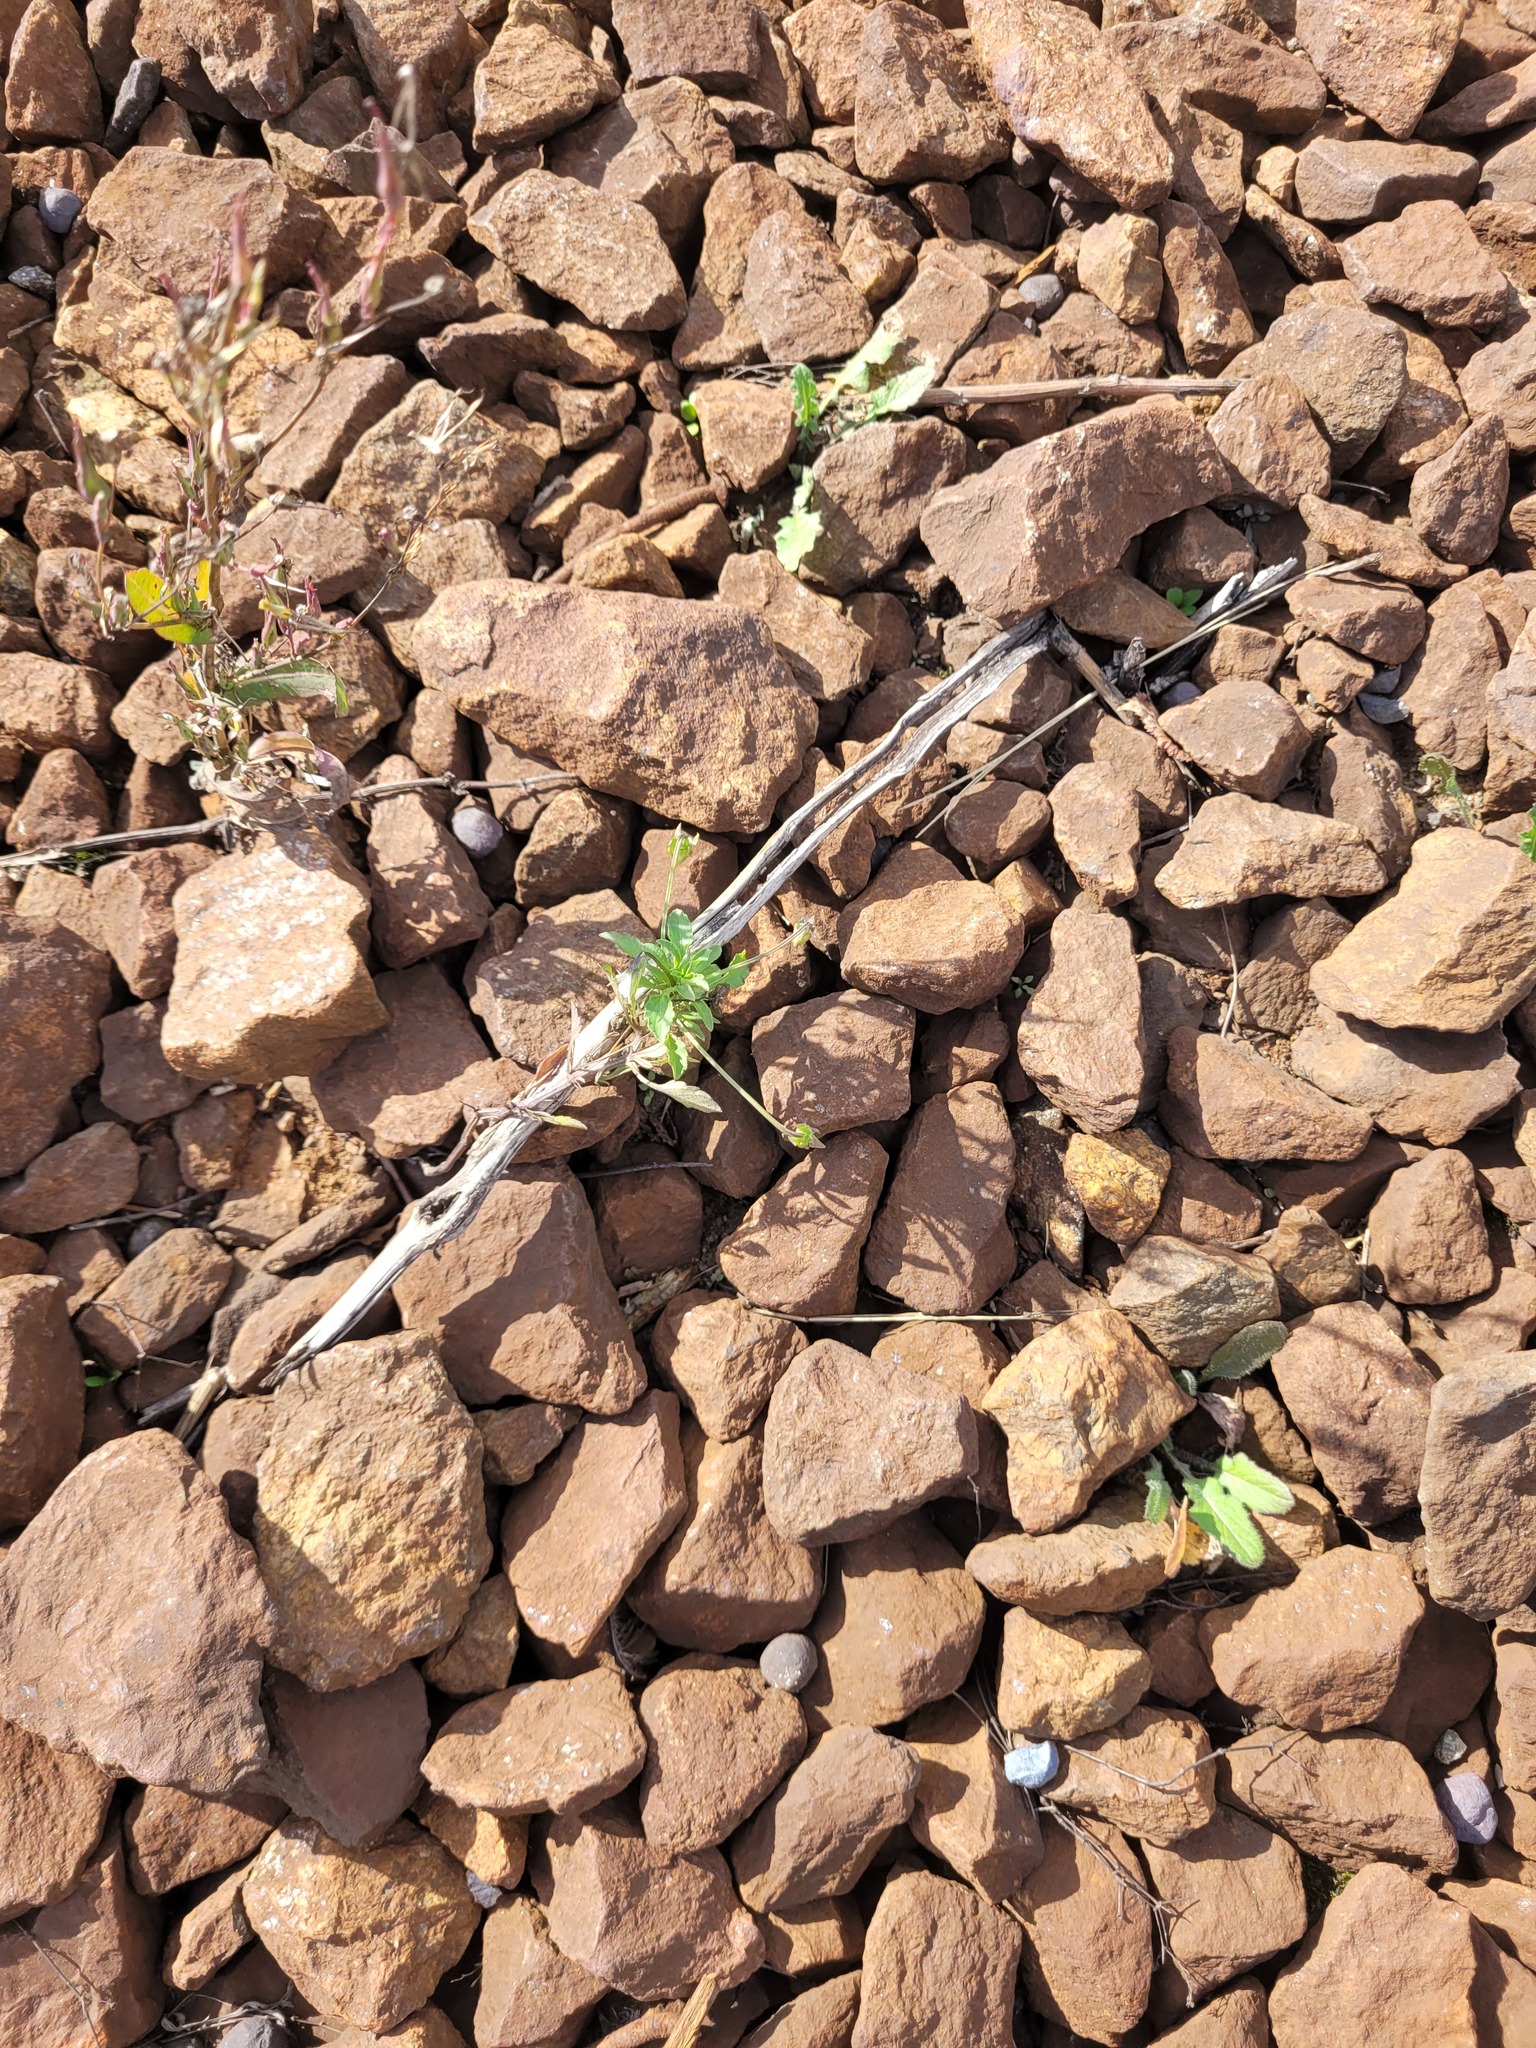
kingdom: Plantae
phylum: Tracheophyta
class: Magnoliopsida
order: Malpighiales
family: Violaceae
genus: Viola
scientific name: Viola arvensis
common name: Field pansy
